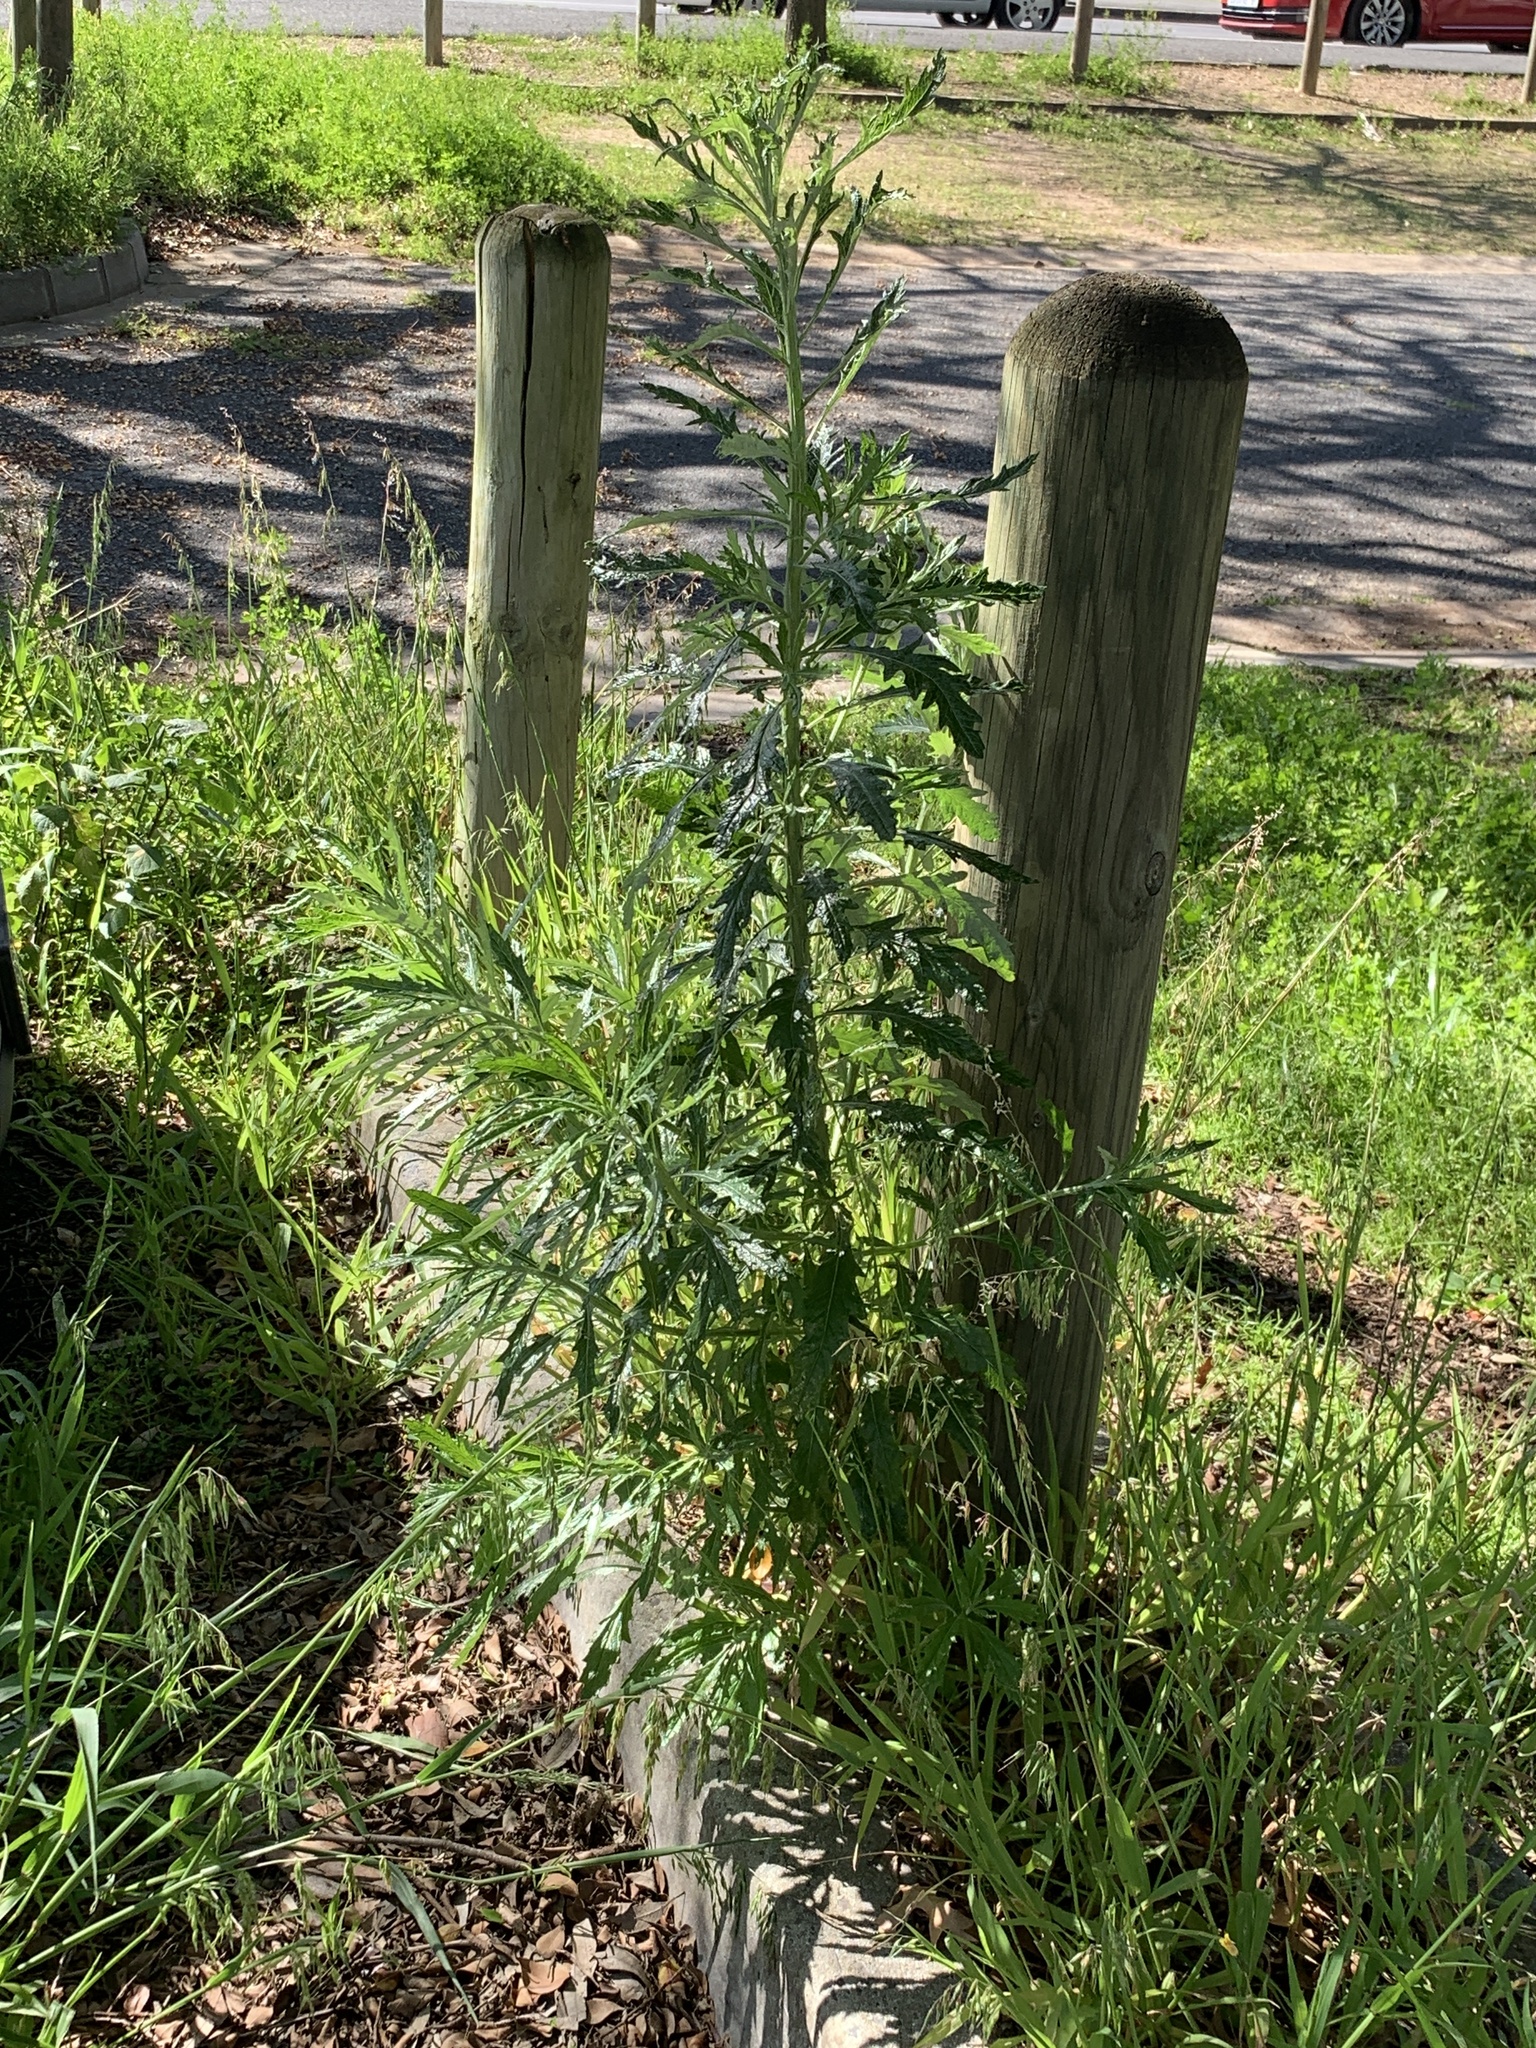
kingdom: Plantae
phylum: Tracheophyta
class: Magnoliopsida
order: Asterales
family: Asteraceae
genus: Senecio
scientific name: Senecio pterophorus
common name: Shoddy ragwort
